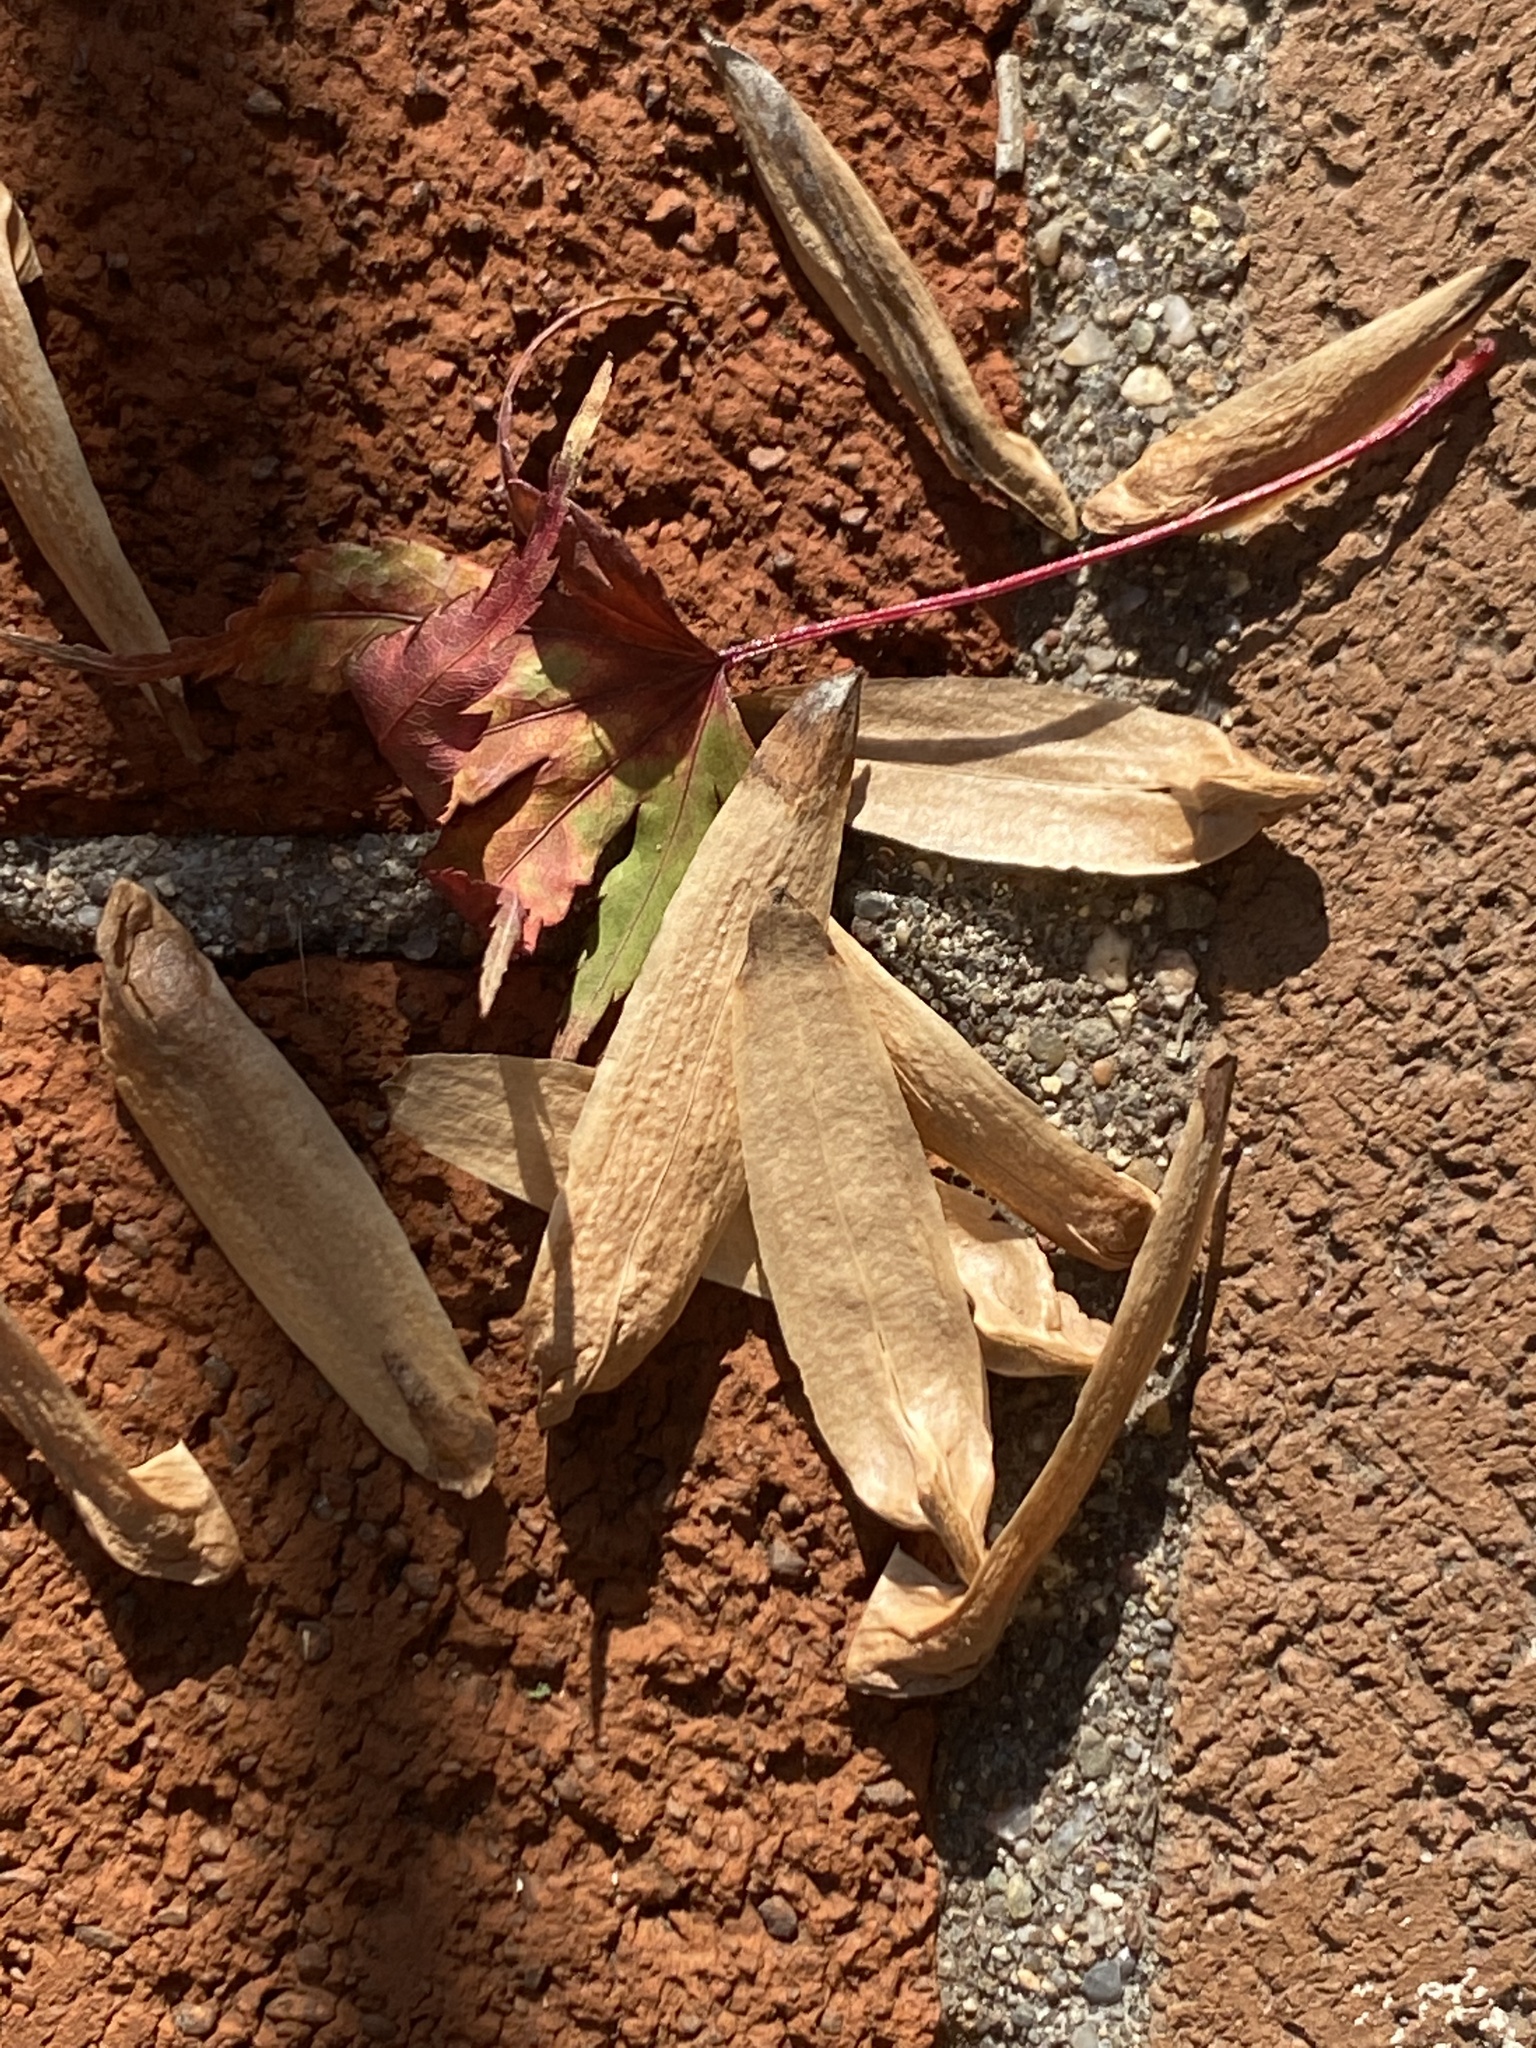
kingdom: Plantae
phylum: Tracheophyta
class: Magnoliopsida
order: Magnoliales
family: Magnoliaceae
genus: Liriodendron
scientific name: Liriodendron tulipifera
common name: Tulip tree
